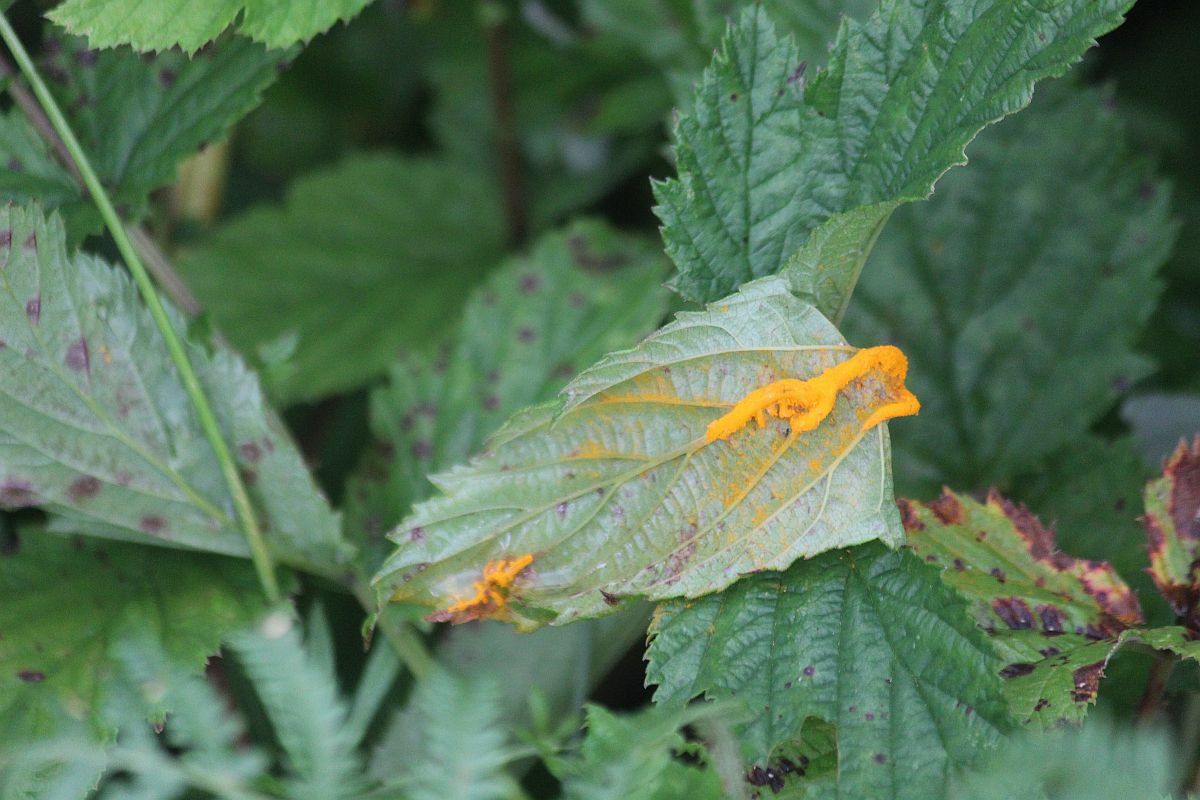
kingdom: Fungi
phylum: Basidiomycota
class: Pucciniomycetes
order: Pucciniales
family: Raveneliaceae
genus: Triphragmium
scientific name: Triphragmium ulmariae
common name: Meadowsweet rust
